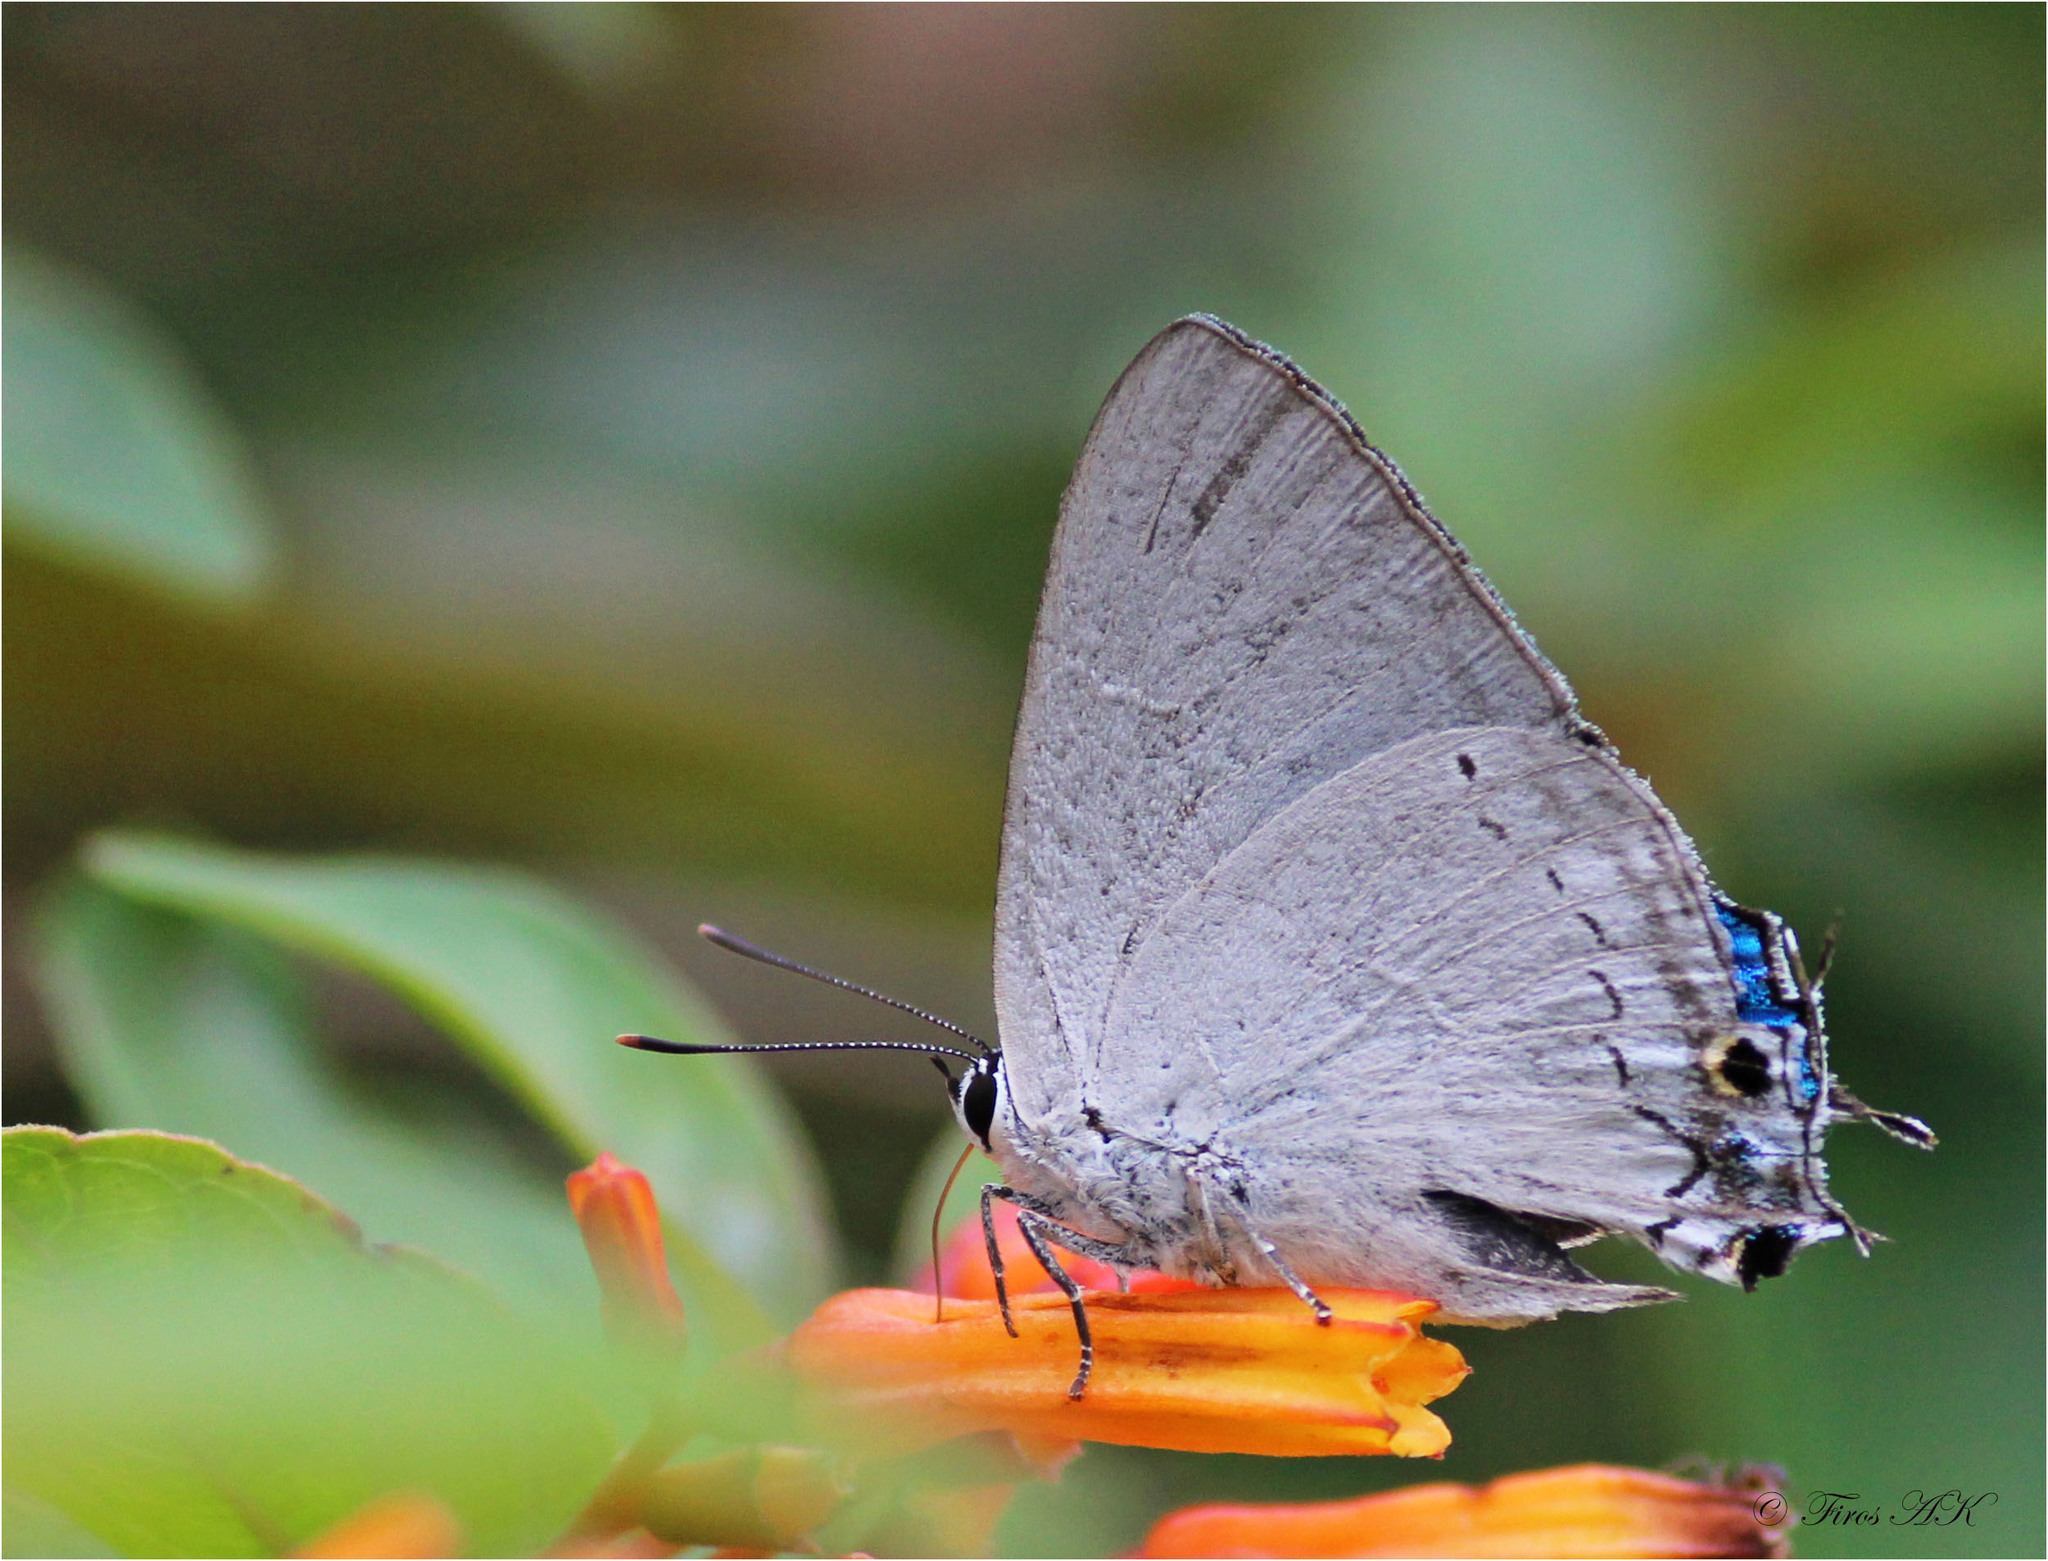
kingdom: Animalia
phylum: Arthropoda
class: Insecta
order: Lepidoptera
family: Lycaenidae
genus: Tajuria
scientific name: Tajuria cippus
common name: Peacock royal
